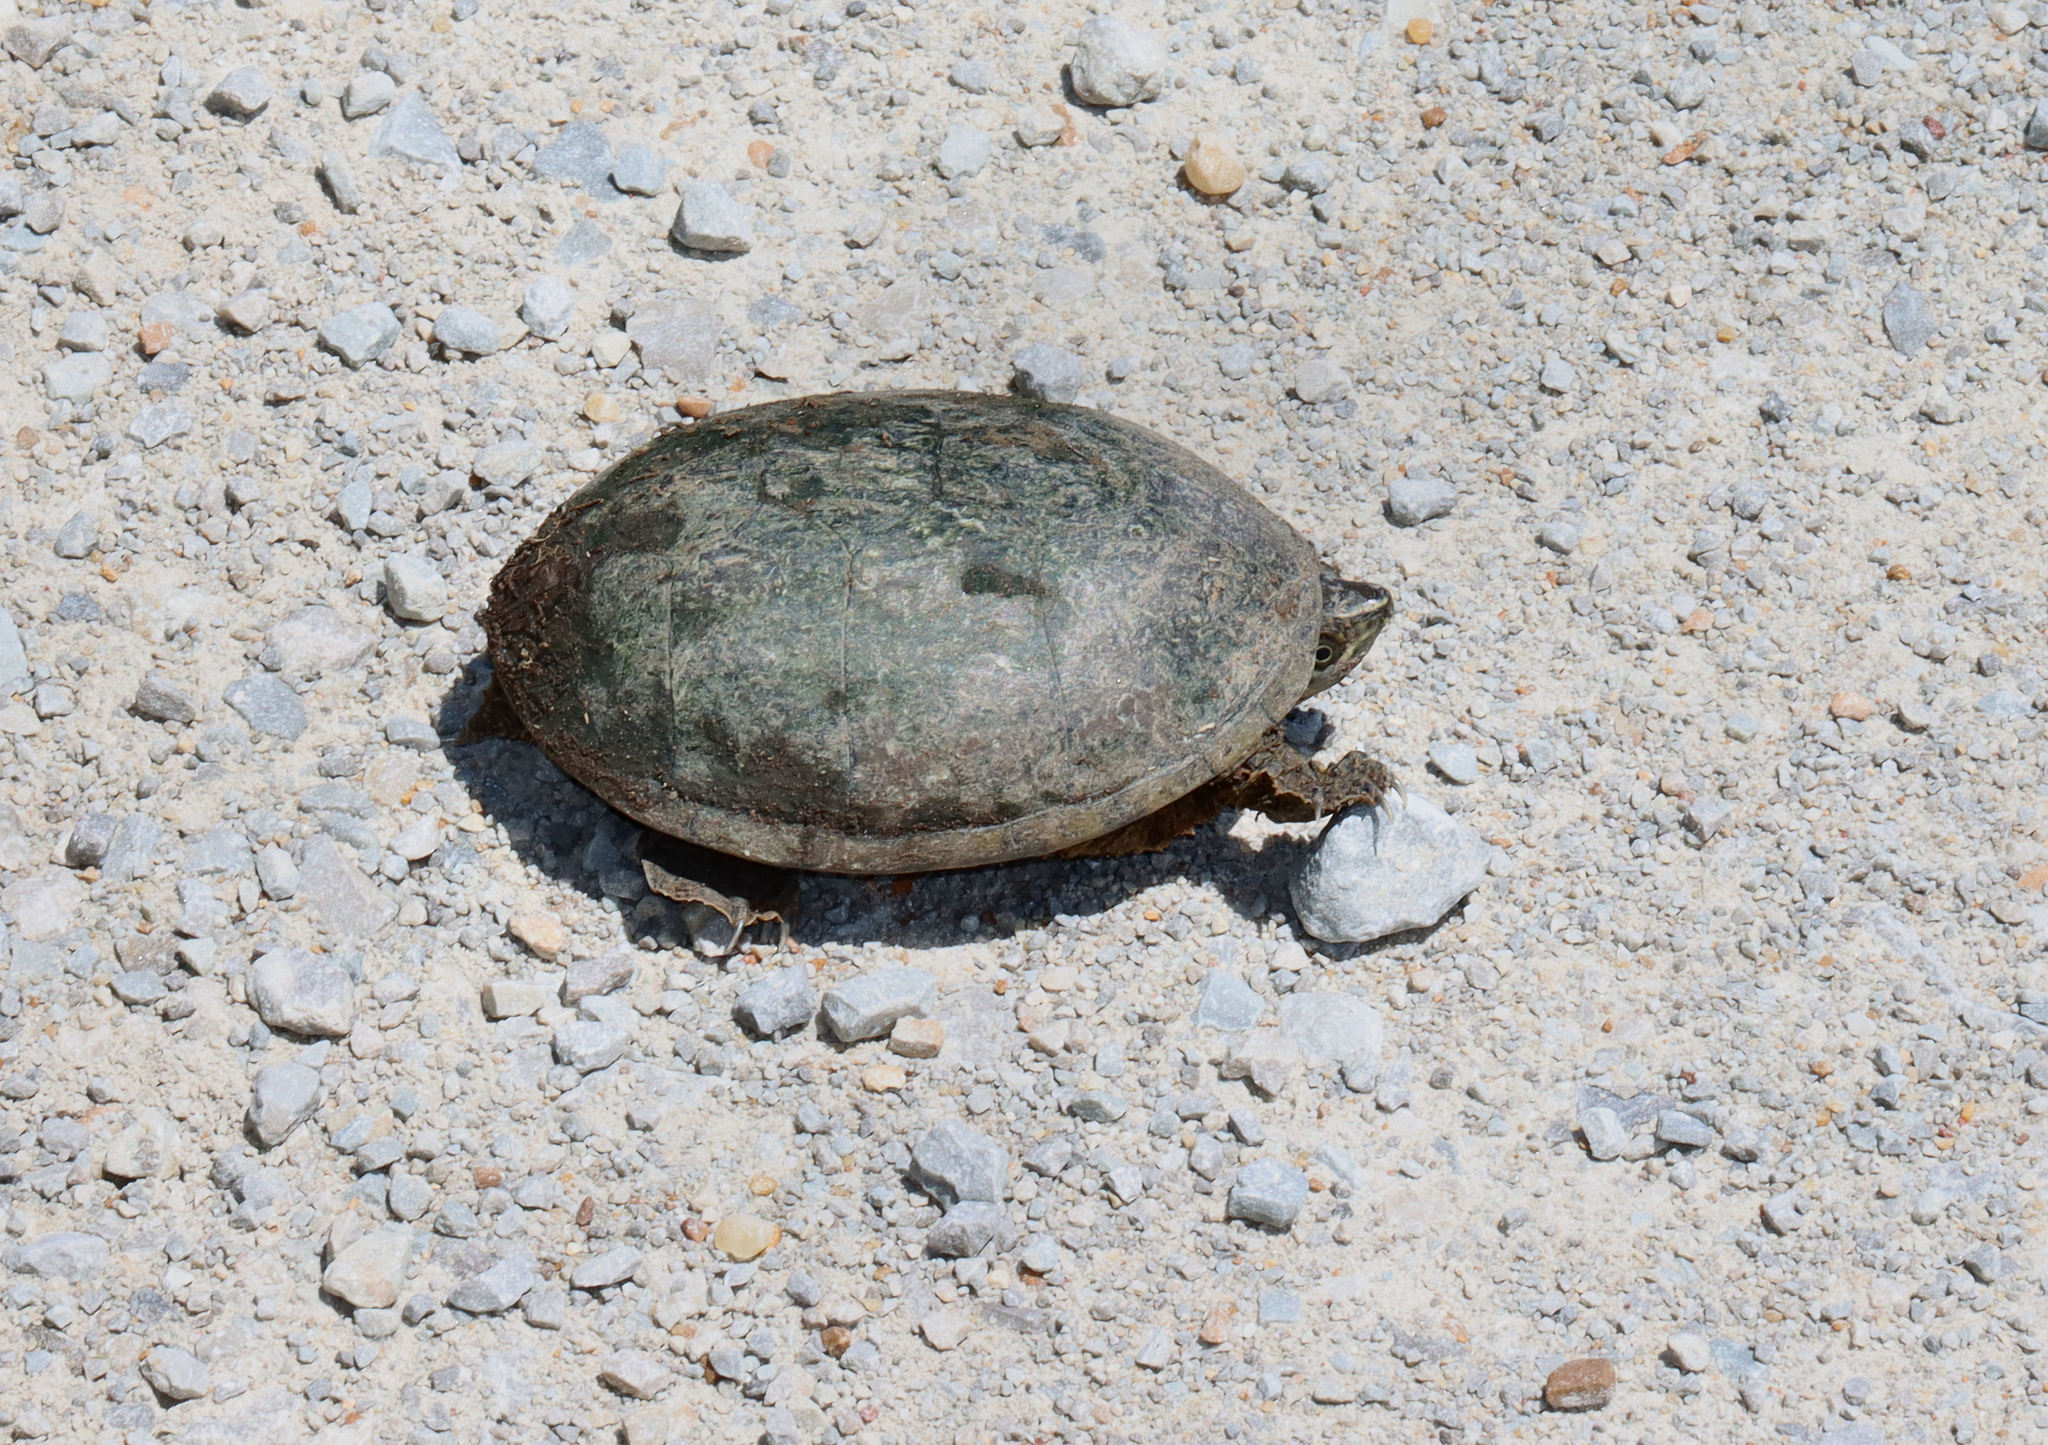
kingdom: Animalia
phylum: Chordata
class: Testudines
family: Kinosternidae
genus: Sternotherus
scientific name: Sternotherus odoratus
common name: Common musk turtle
